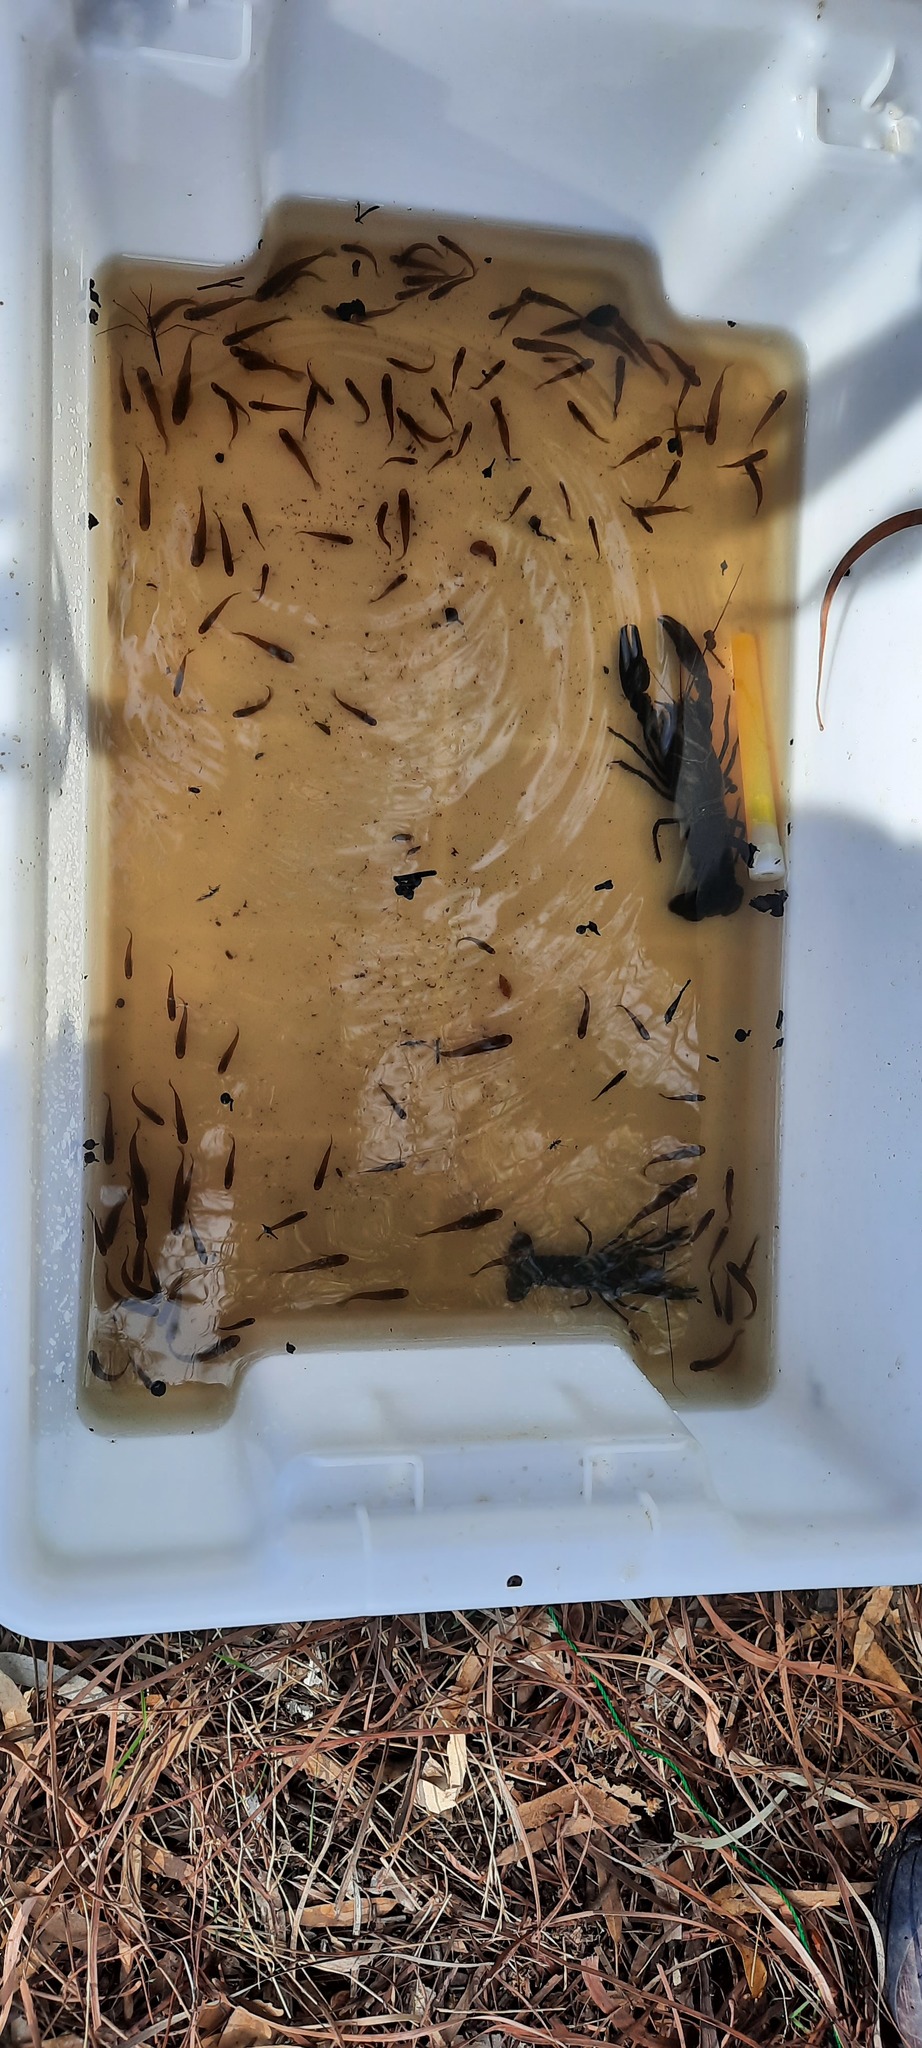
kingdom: Animalia
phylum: Chordata
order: Cyprinodontiformes
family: Poeciliidae
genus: Gambusia
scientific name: Gambusia holbrooki
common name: Eastern mosquitofish
